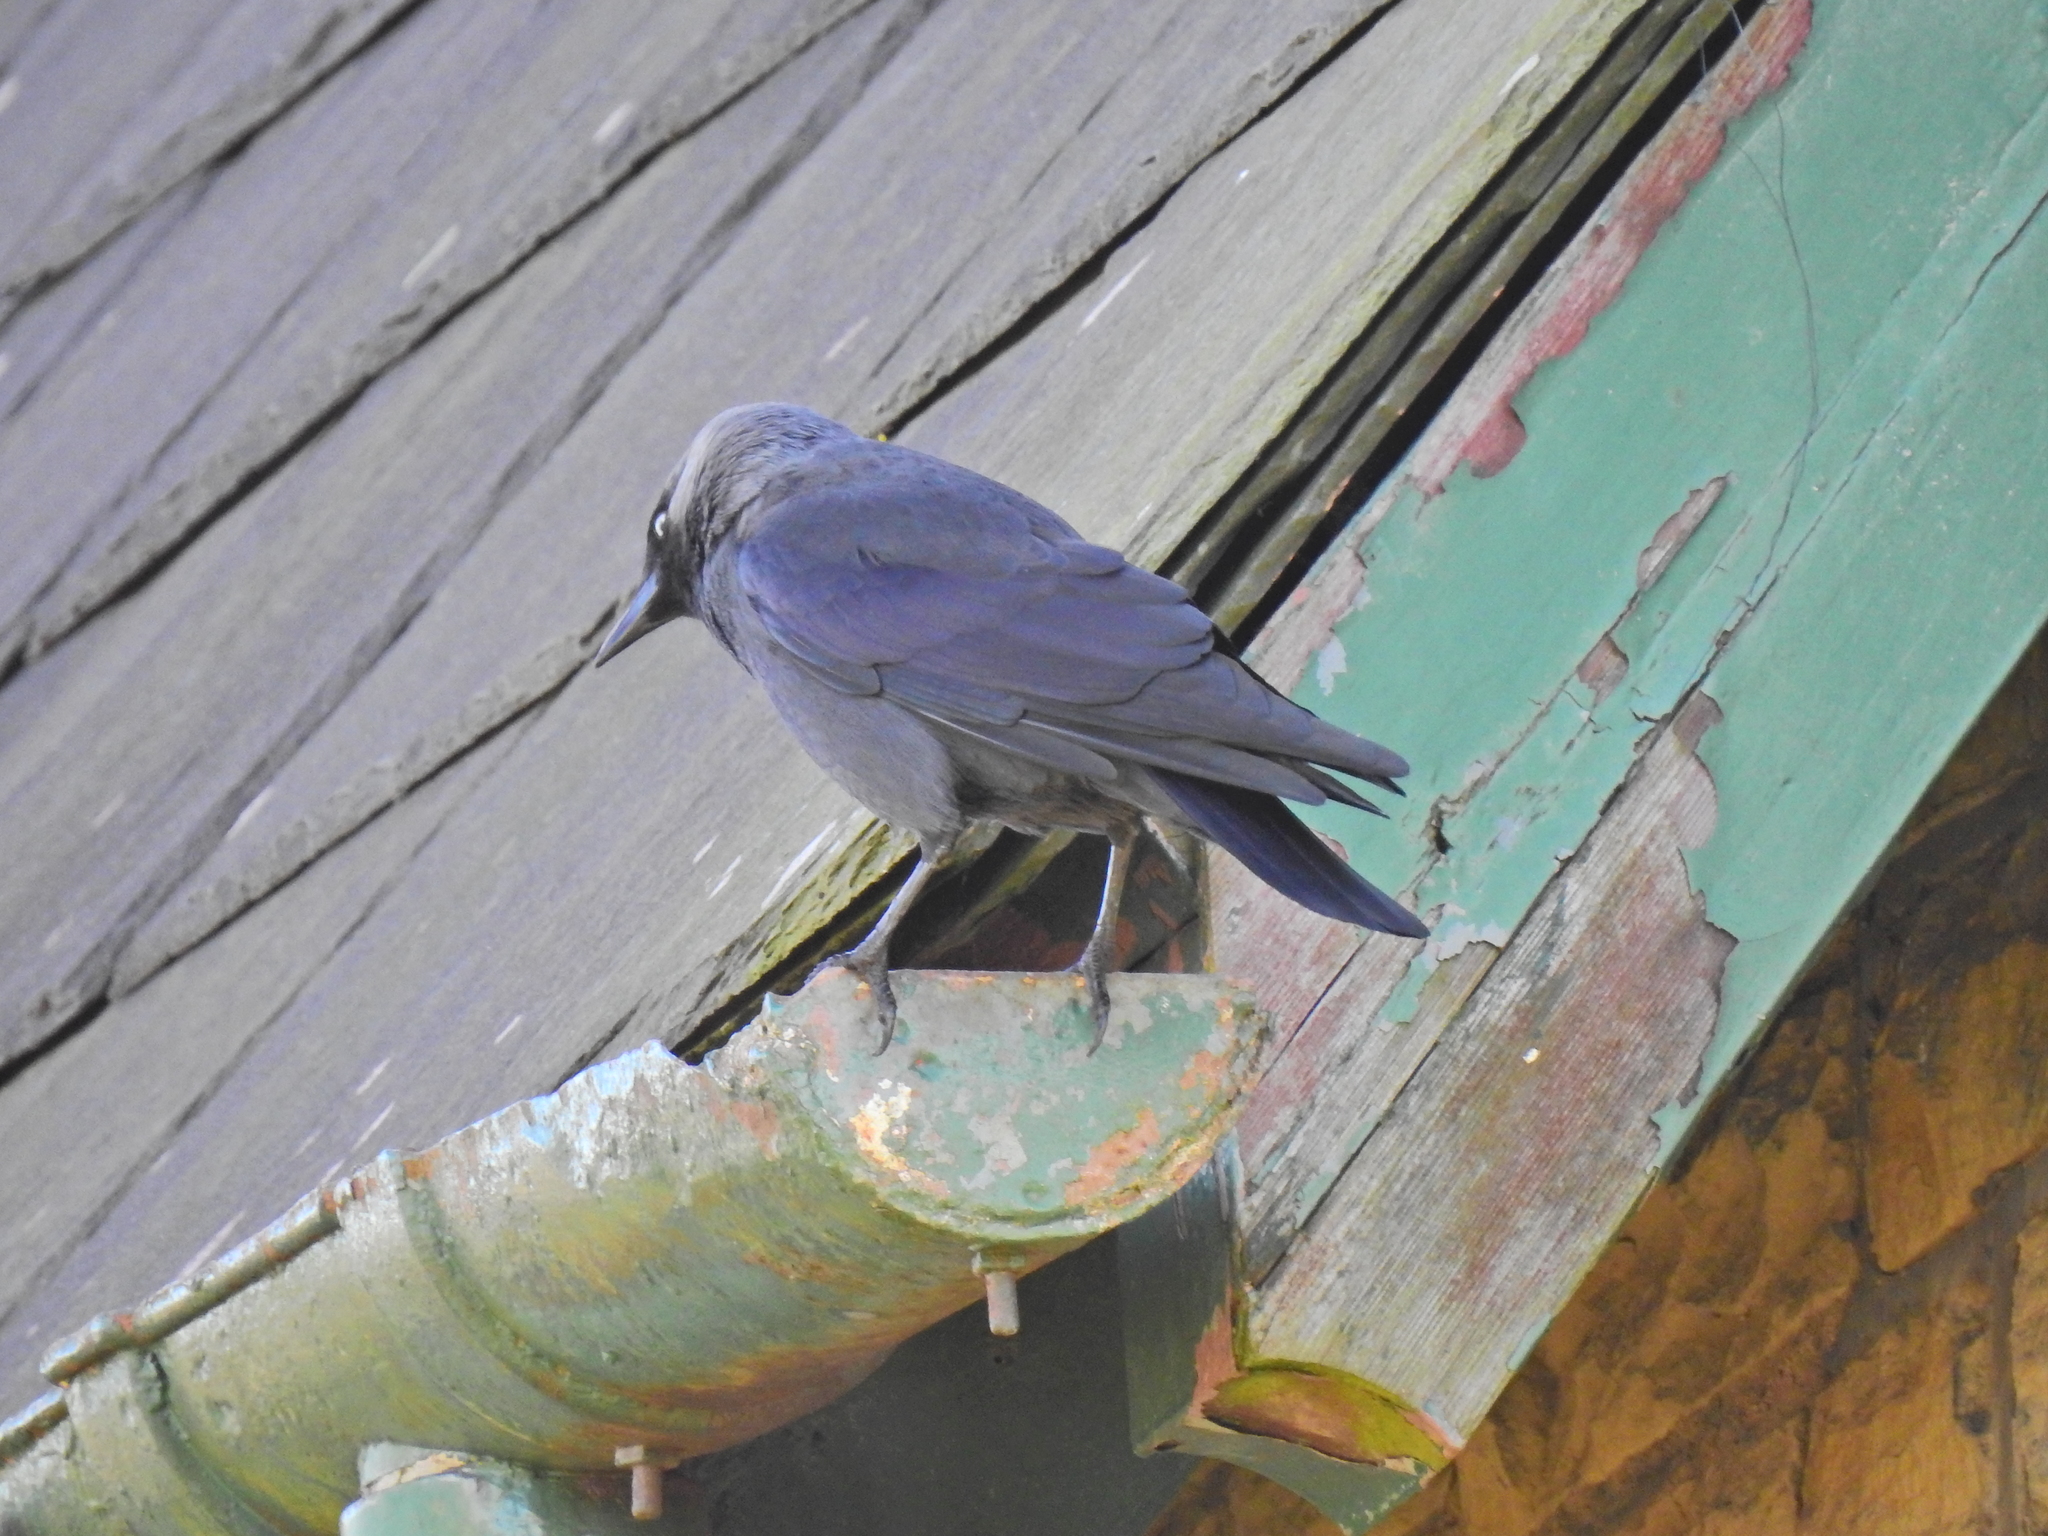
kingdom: Animalia
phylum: Chordata
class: Aves
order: Passeriformes
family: Corvidae
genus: Coloeus
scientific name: Coloeus monedula
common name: Western jackdaw
